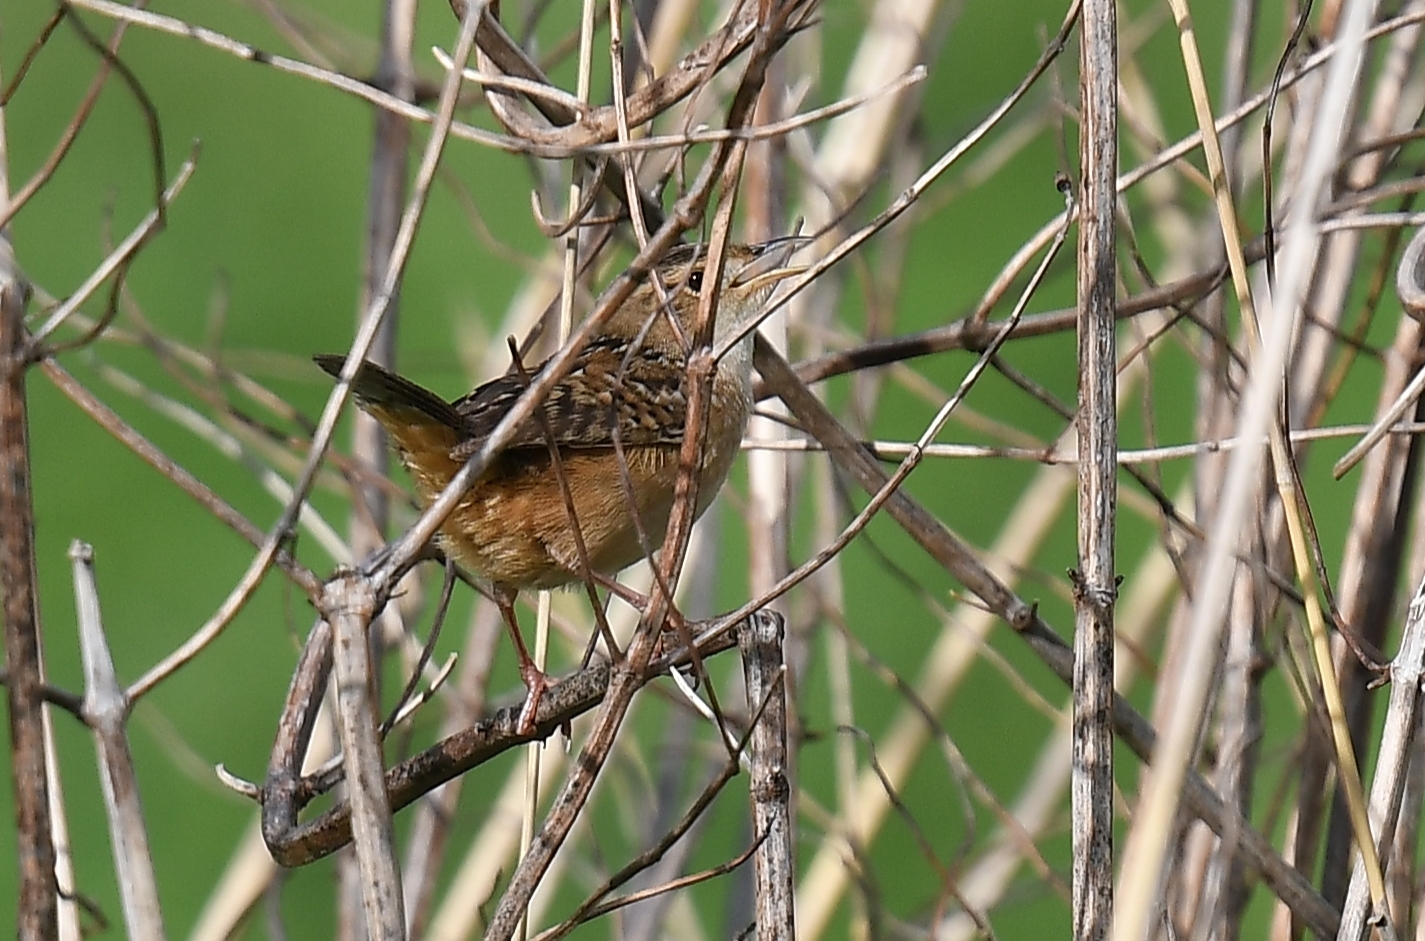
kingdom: Animalia
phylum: Chordata
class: Aves
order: Passeriformes
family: Troglodytidae
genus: Cistothorus
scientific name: Cistothorus platensis
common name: Sedge wren
